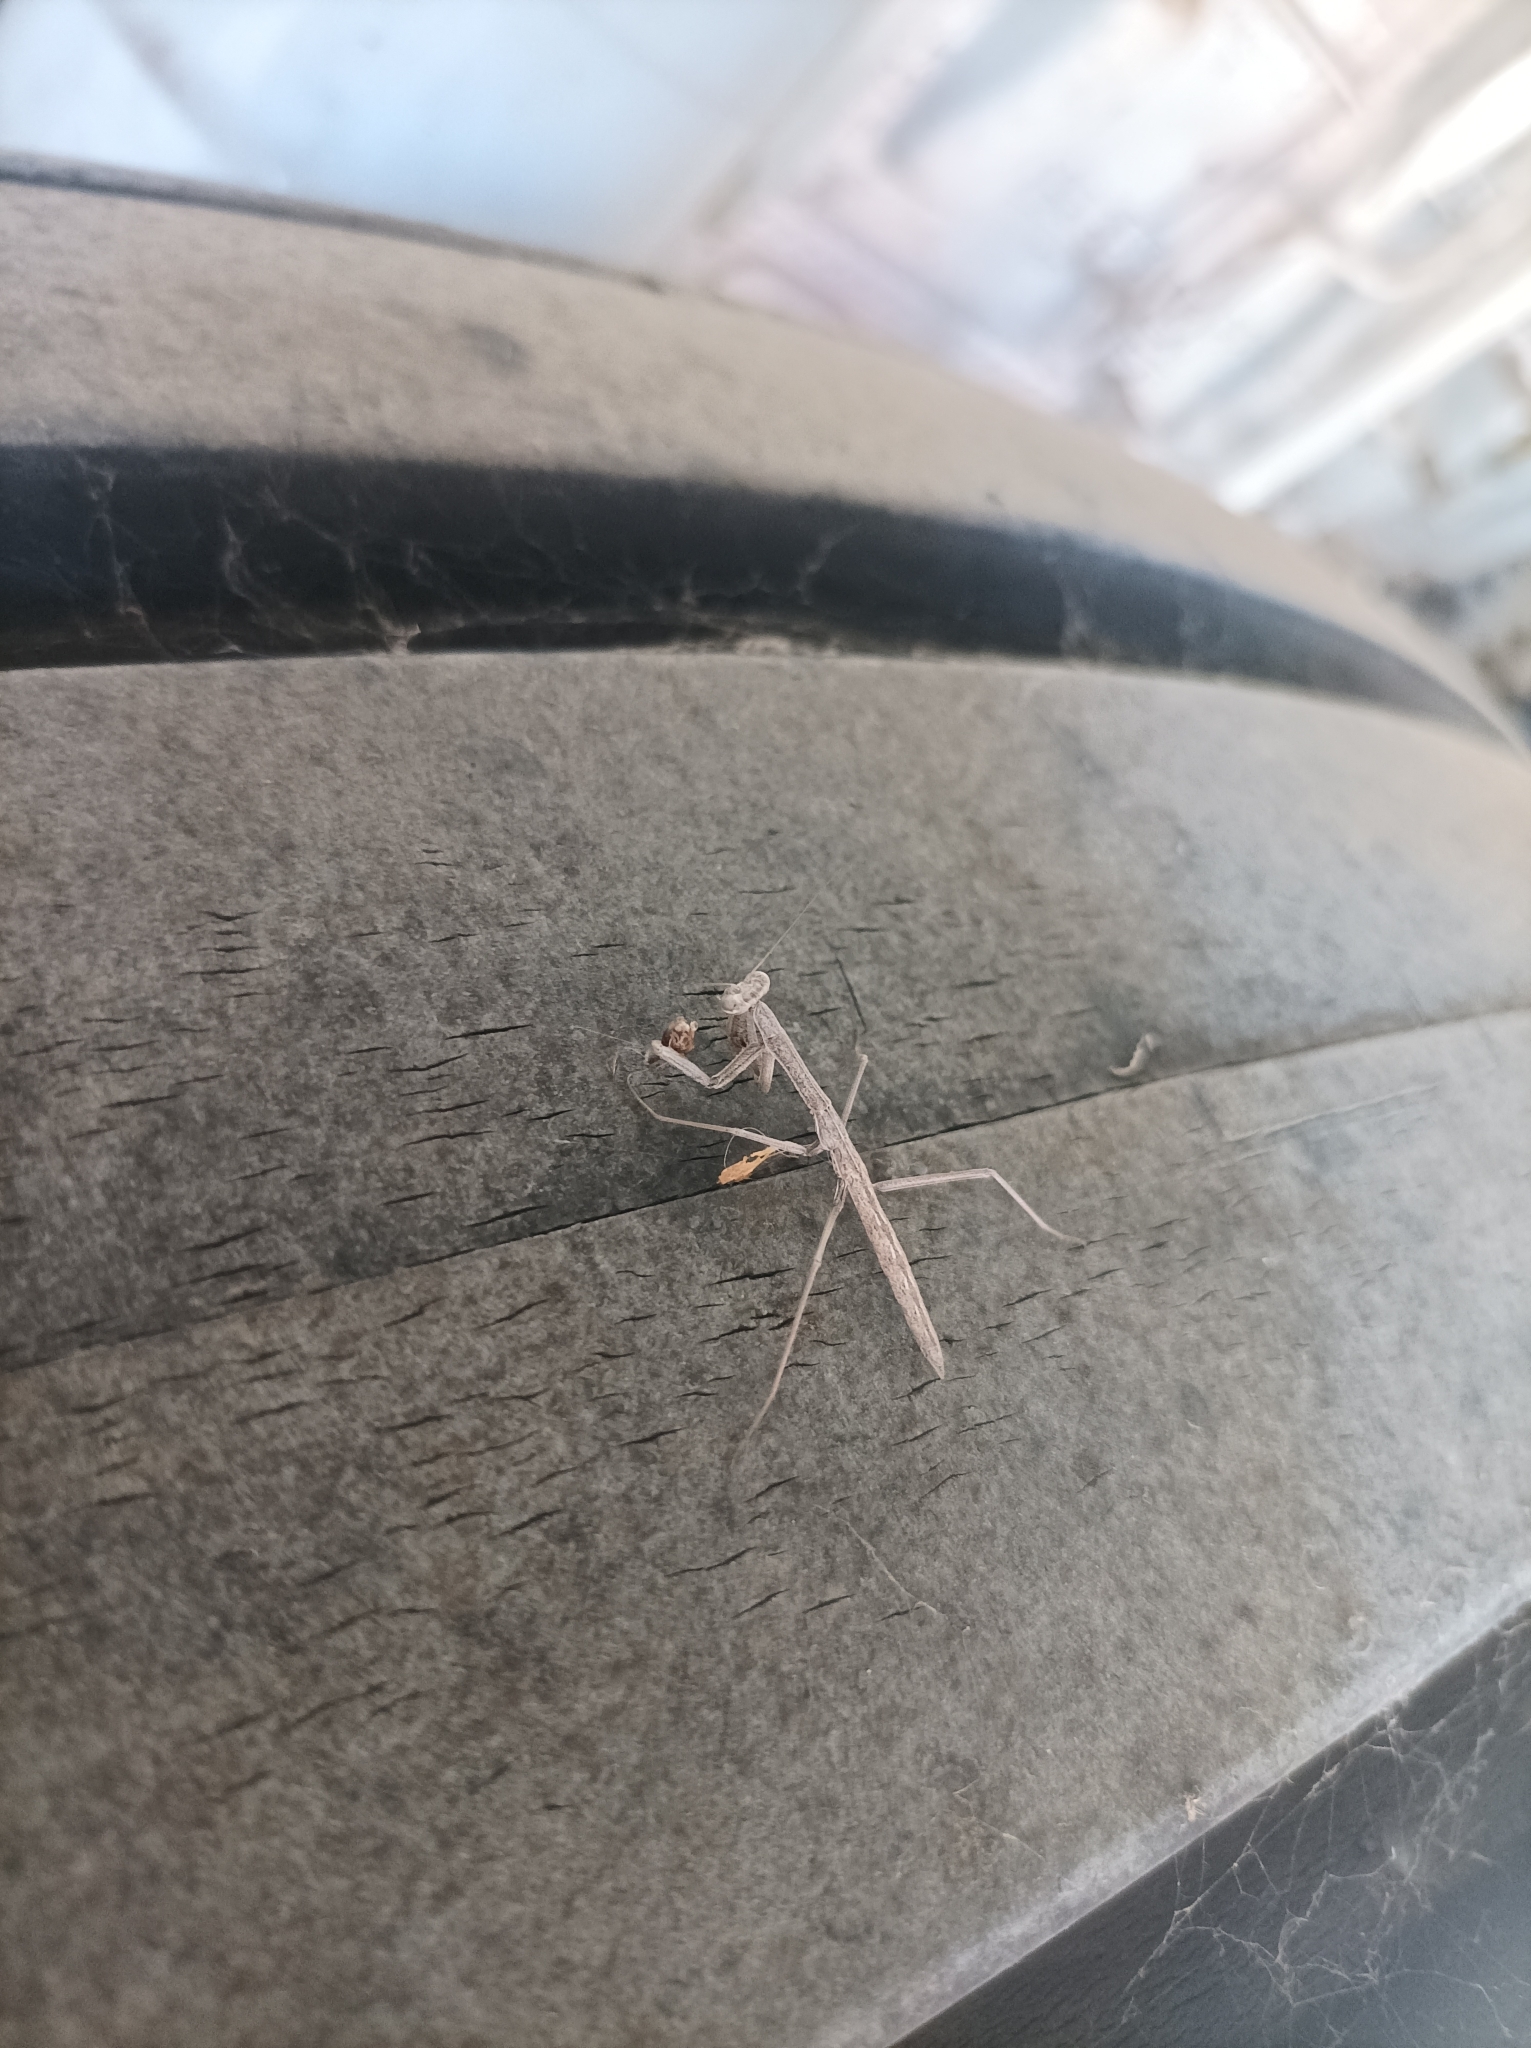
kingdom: Animalia
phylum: Arthropoda
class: Insecta
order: Mantodea
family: Coptopterygidae
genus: Coptopteryx
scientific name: Coptopteryx gayi
